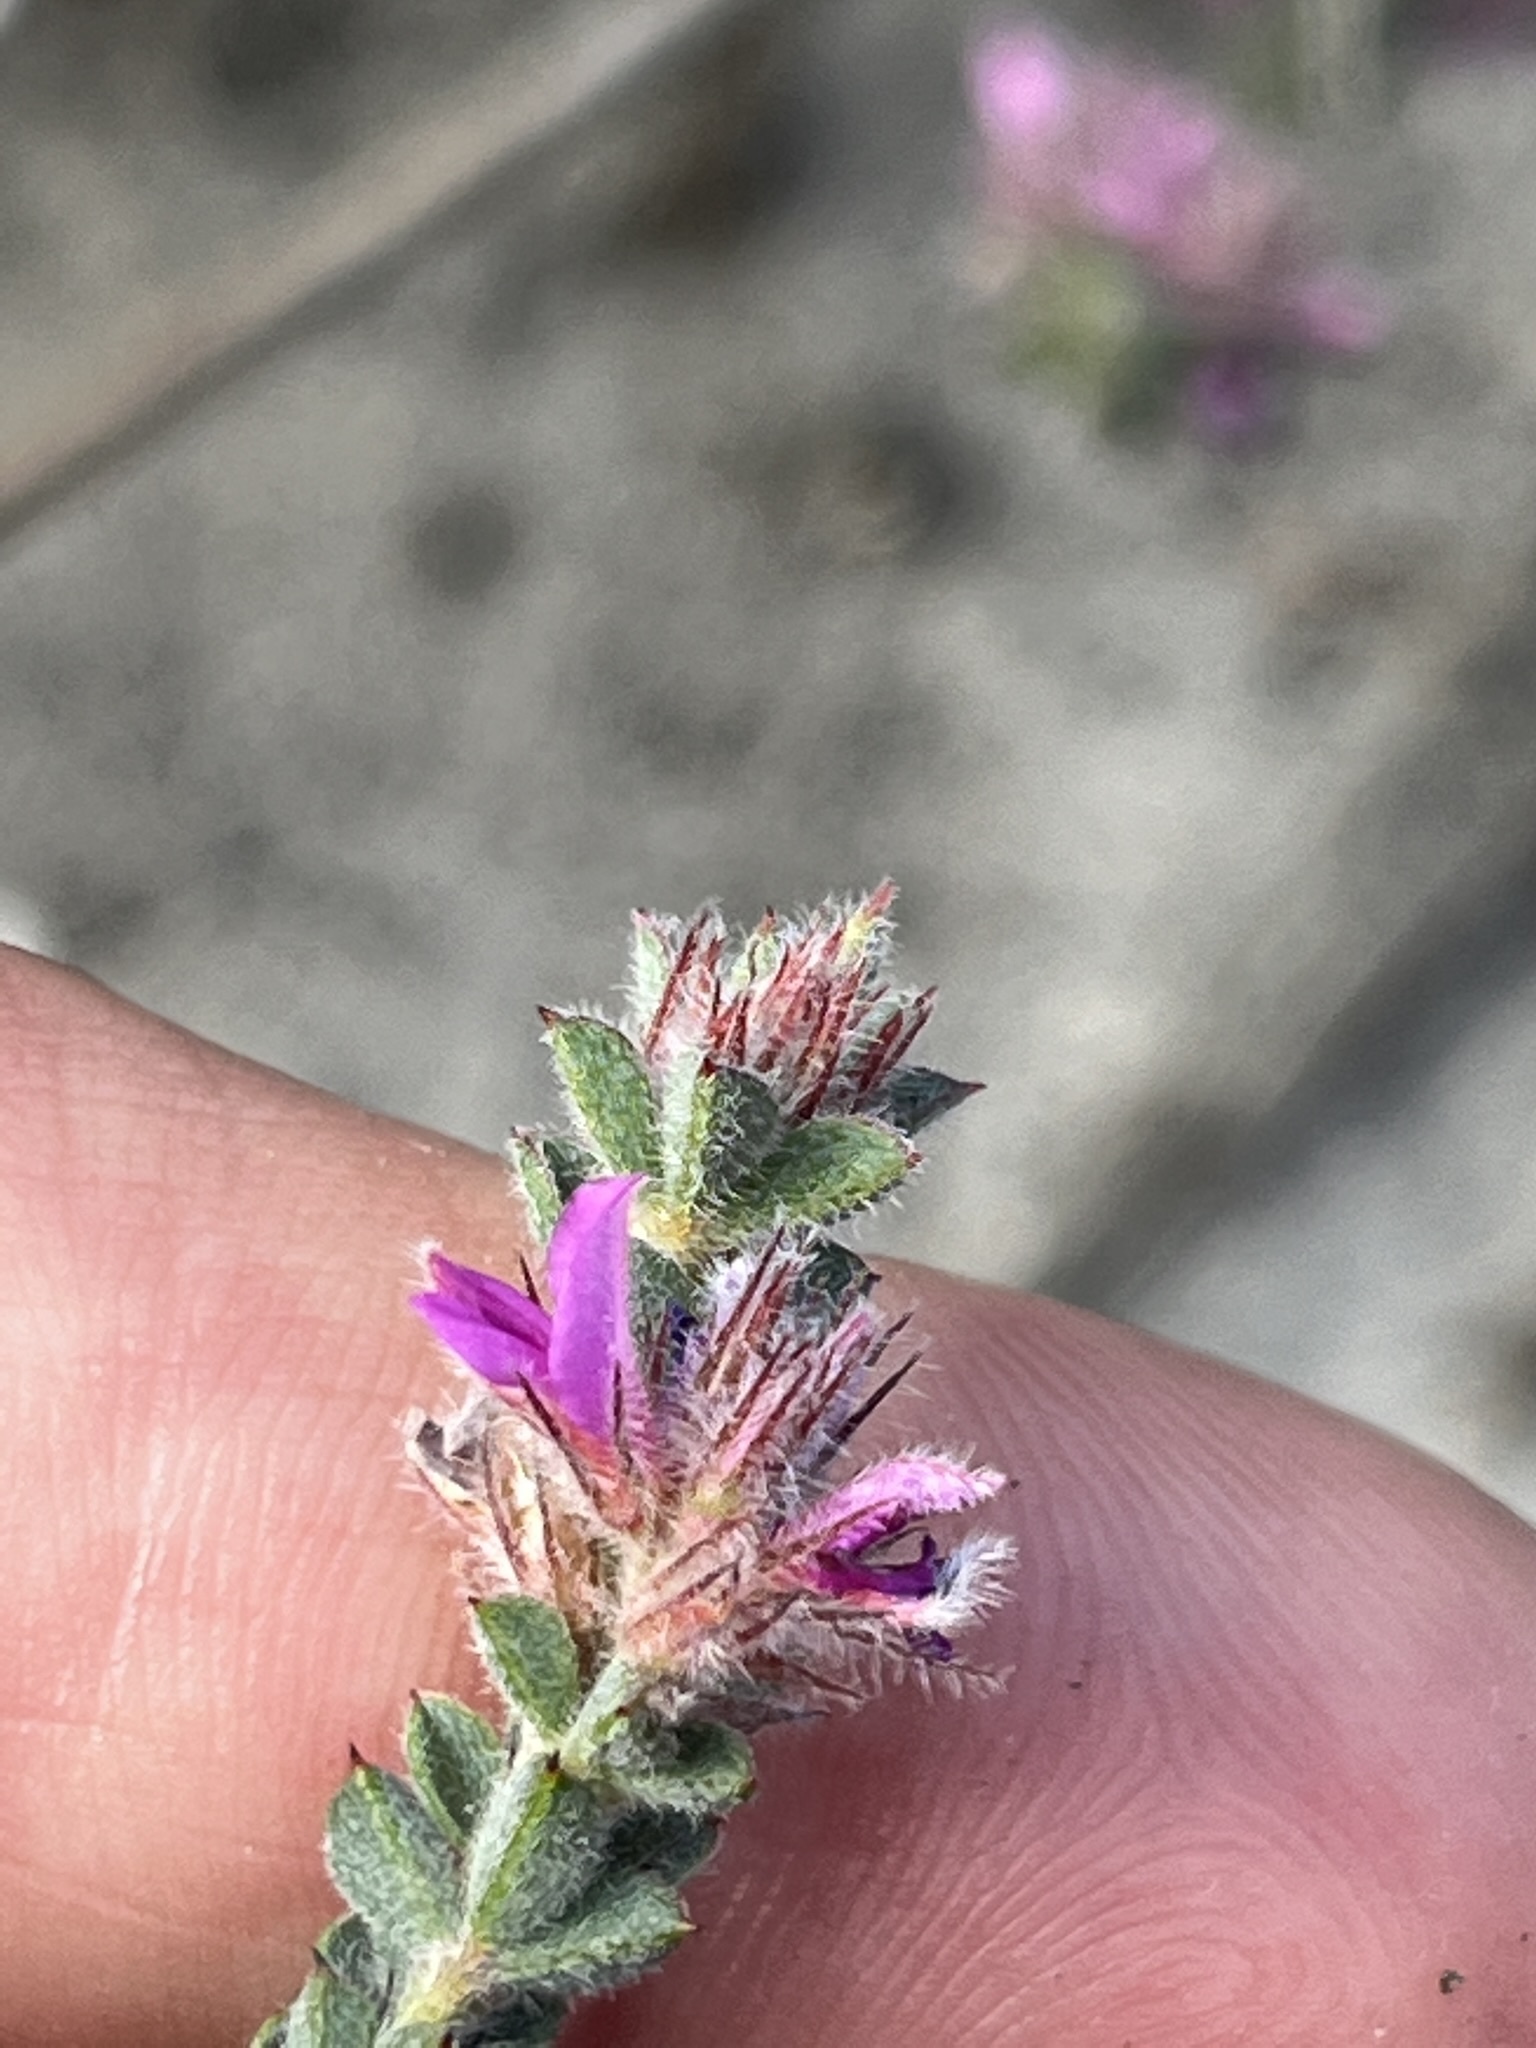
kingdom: Plantae
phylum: Tracheophyta
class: Magnoliopsida
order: Fabales
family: Fabaceae
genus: Indigofera
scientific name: Indigofera glomerata
